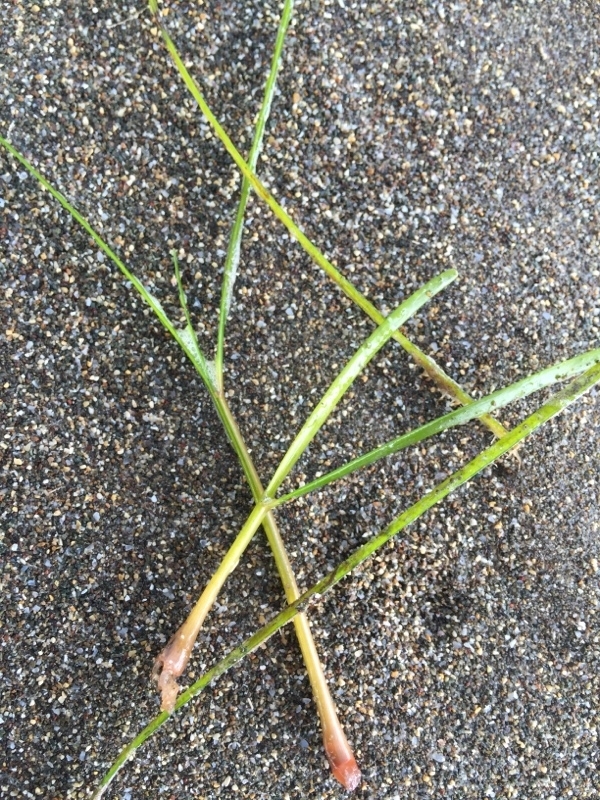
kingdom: Plantae
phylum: Tracheophyta
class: Liliopsida
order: Alismatales
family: Cymodoceaceae
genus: Cymodocea
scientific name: Cymodocea nodosa
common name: Slender seagrass
